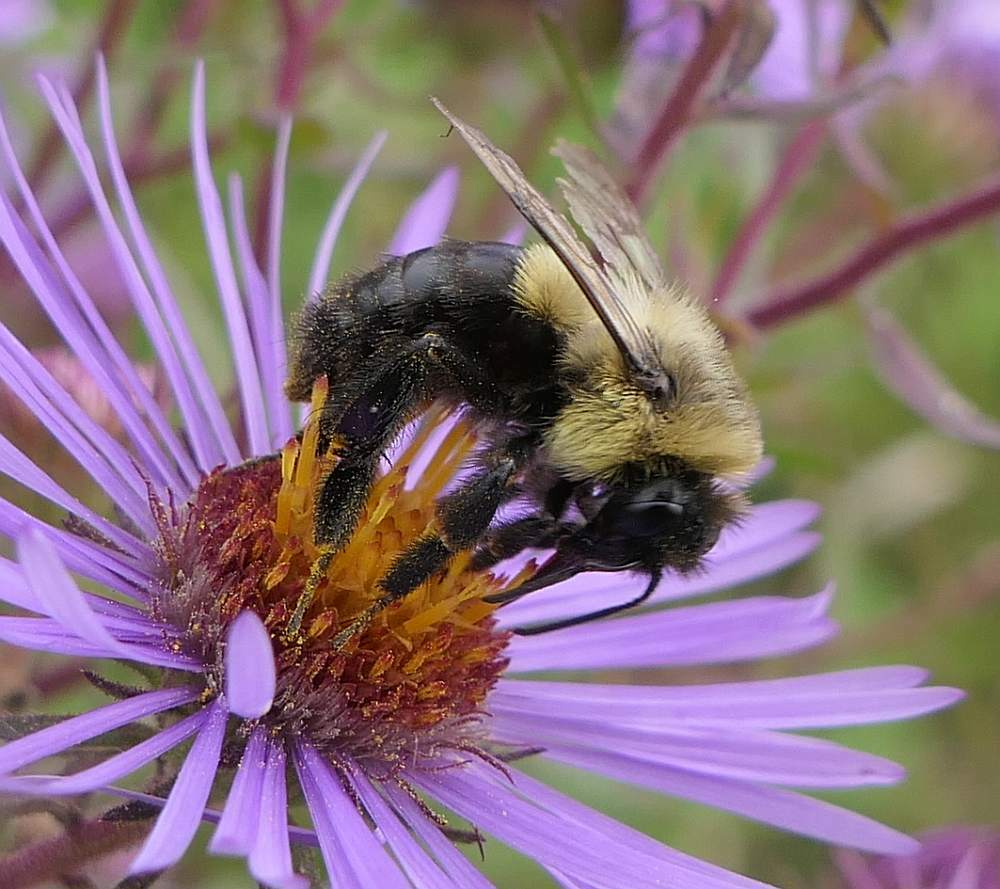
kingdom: Animalia
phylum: Arthropoda
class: Insecta
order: Hymenoptera
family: Apidae
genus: Bombus
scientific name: Bombus impatiens
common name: Common eastern bumble bee
